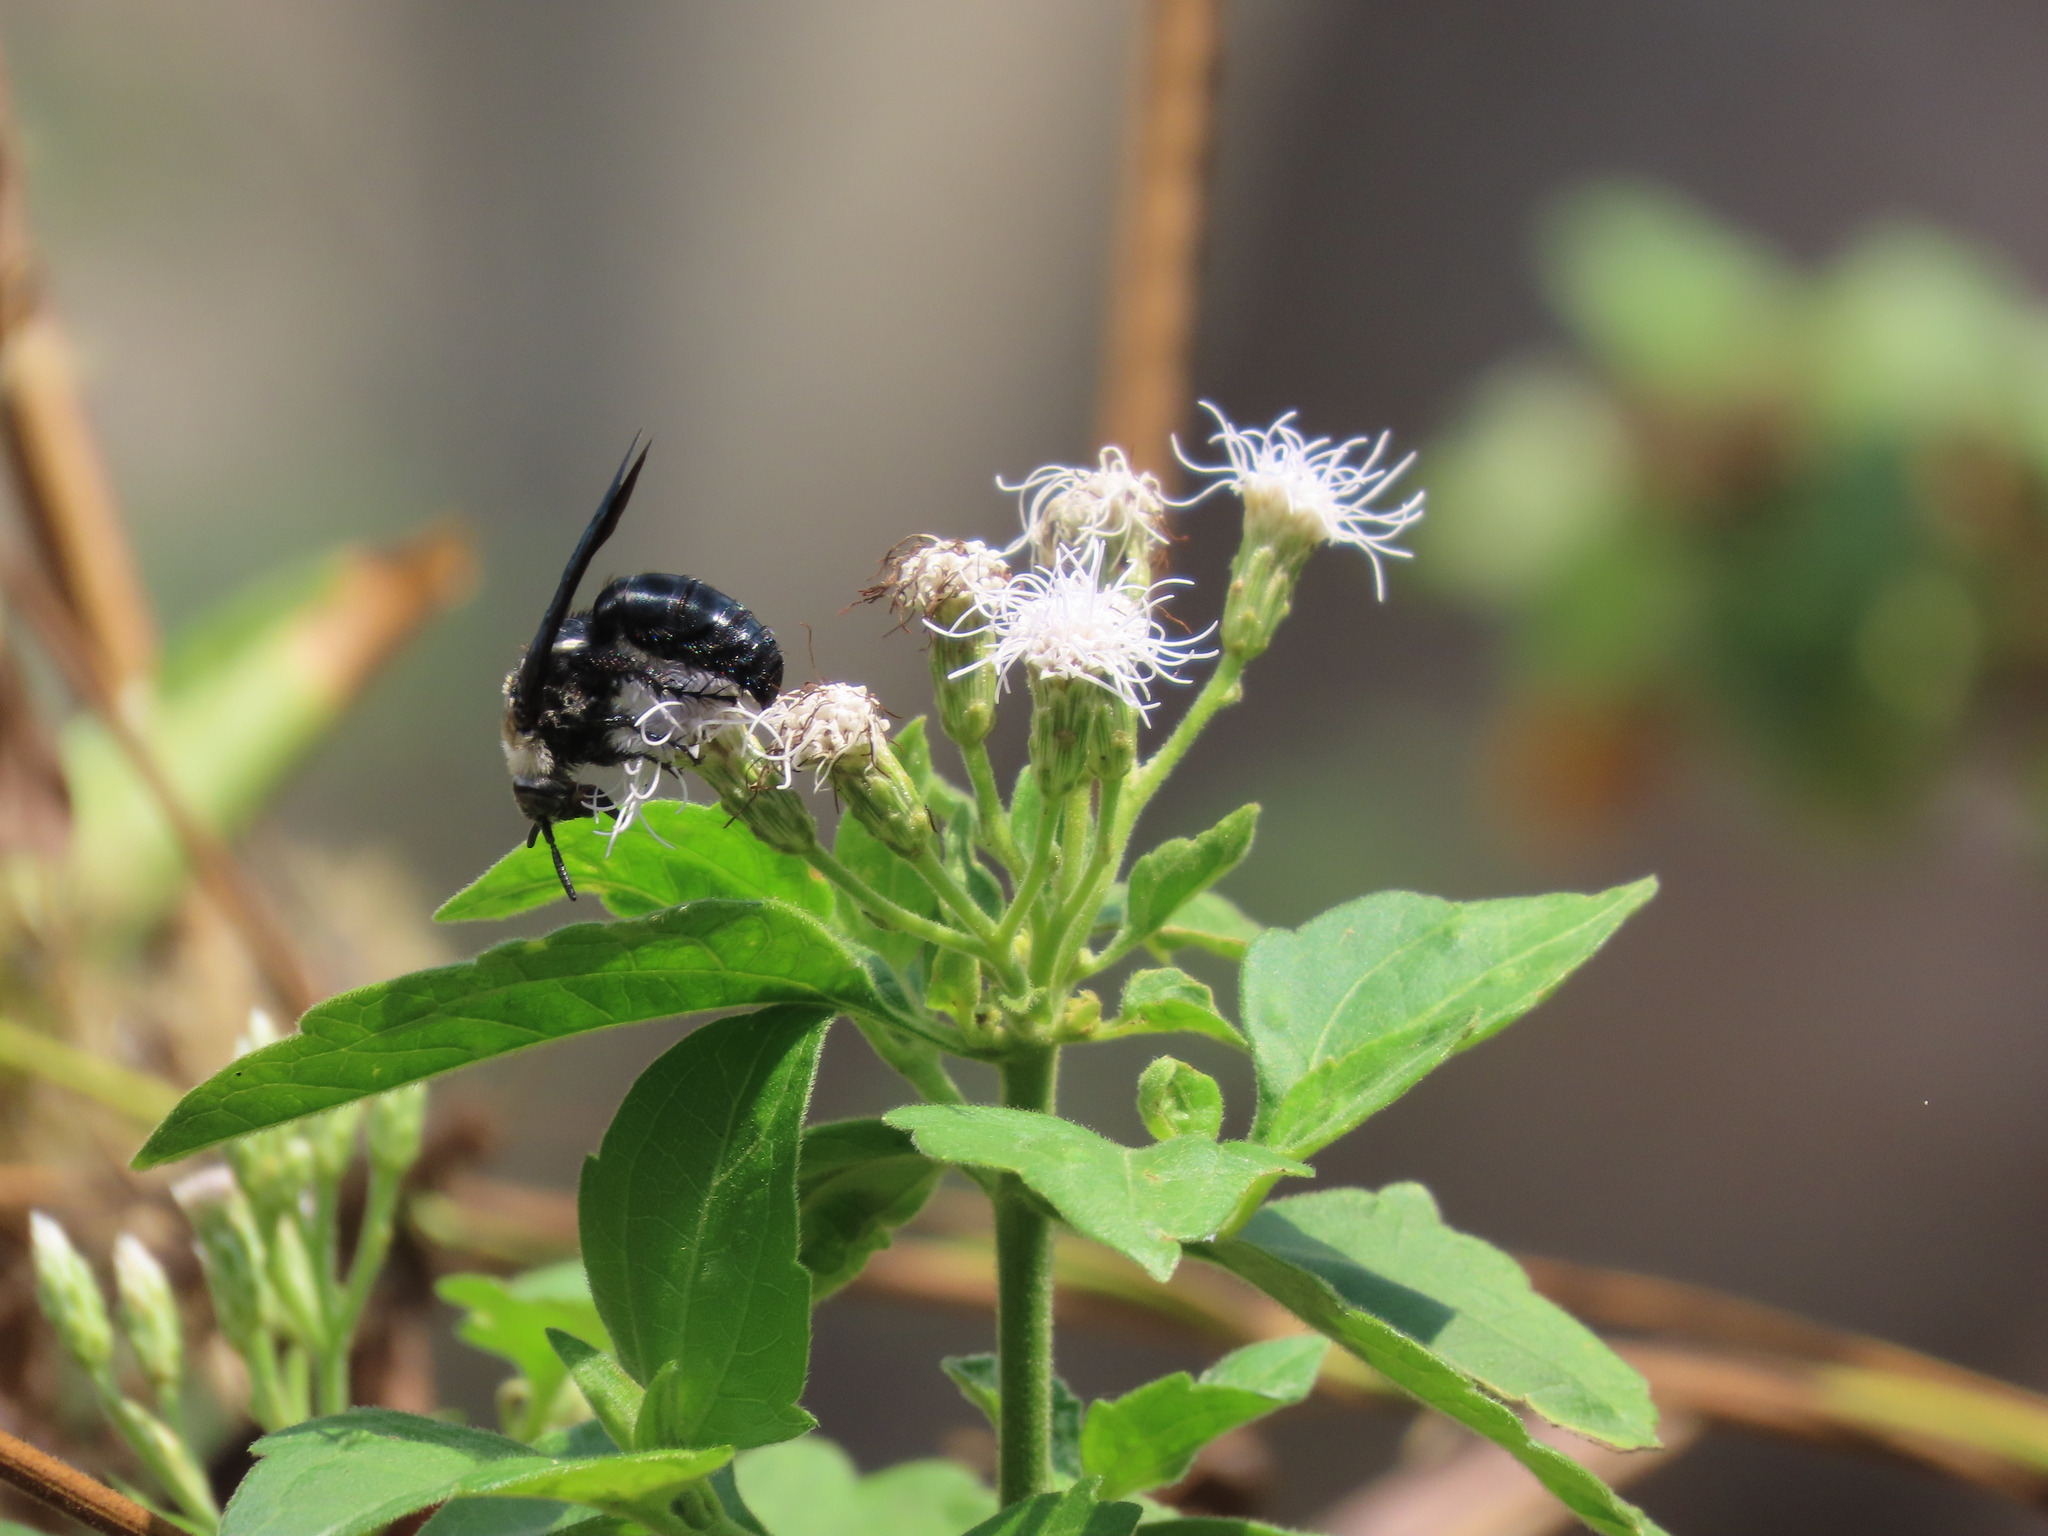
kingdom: Animalia
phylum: Arthropoda
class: Insecta
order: Hymenoptera
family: Scoliidae
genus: Campsomeriella
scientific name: Campsomeriella collaris
